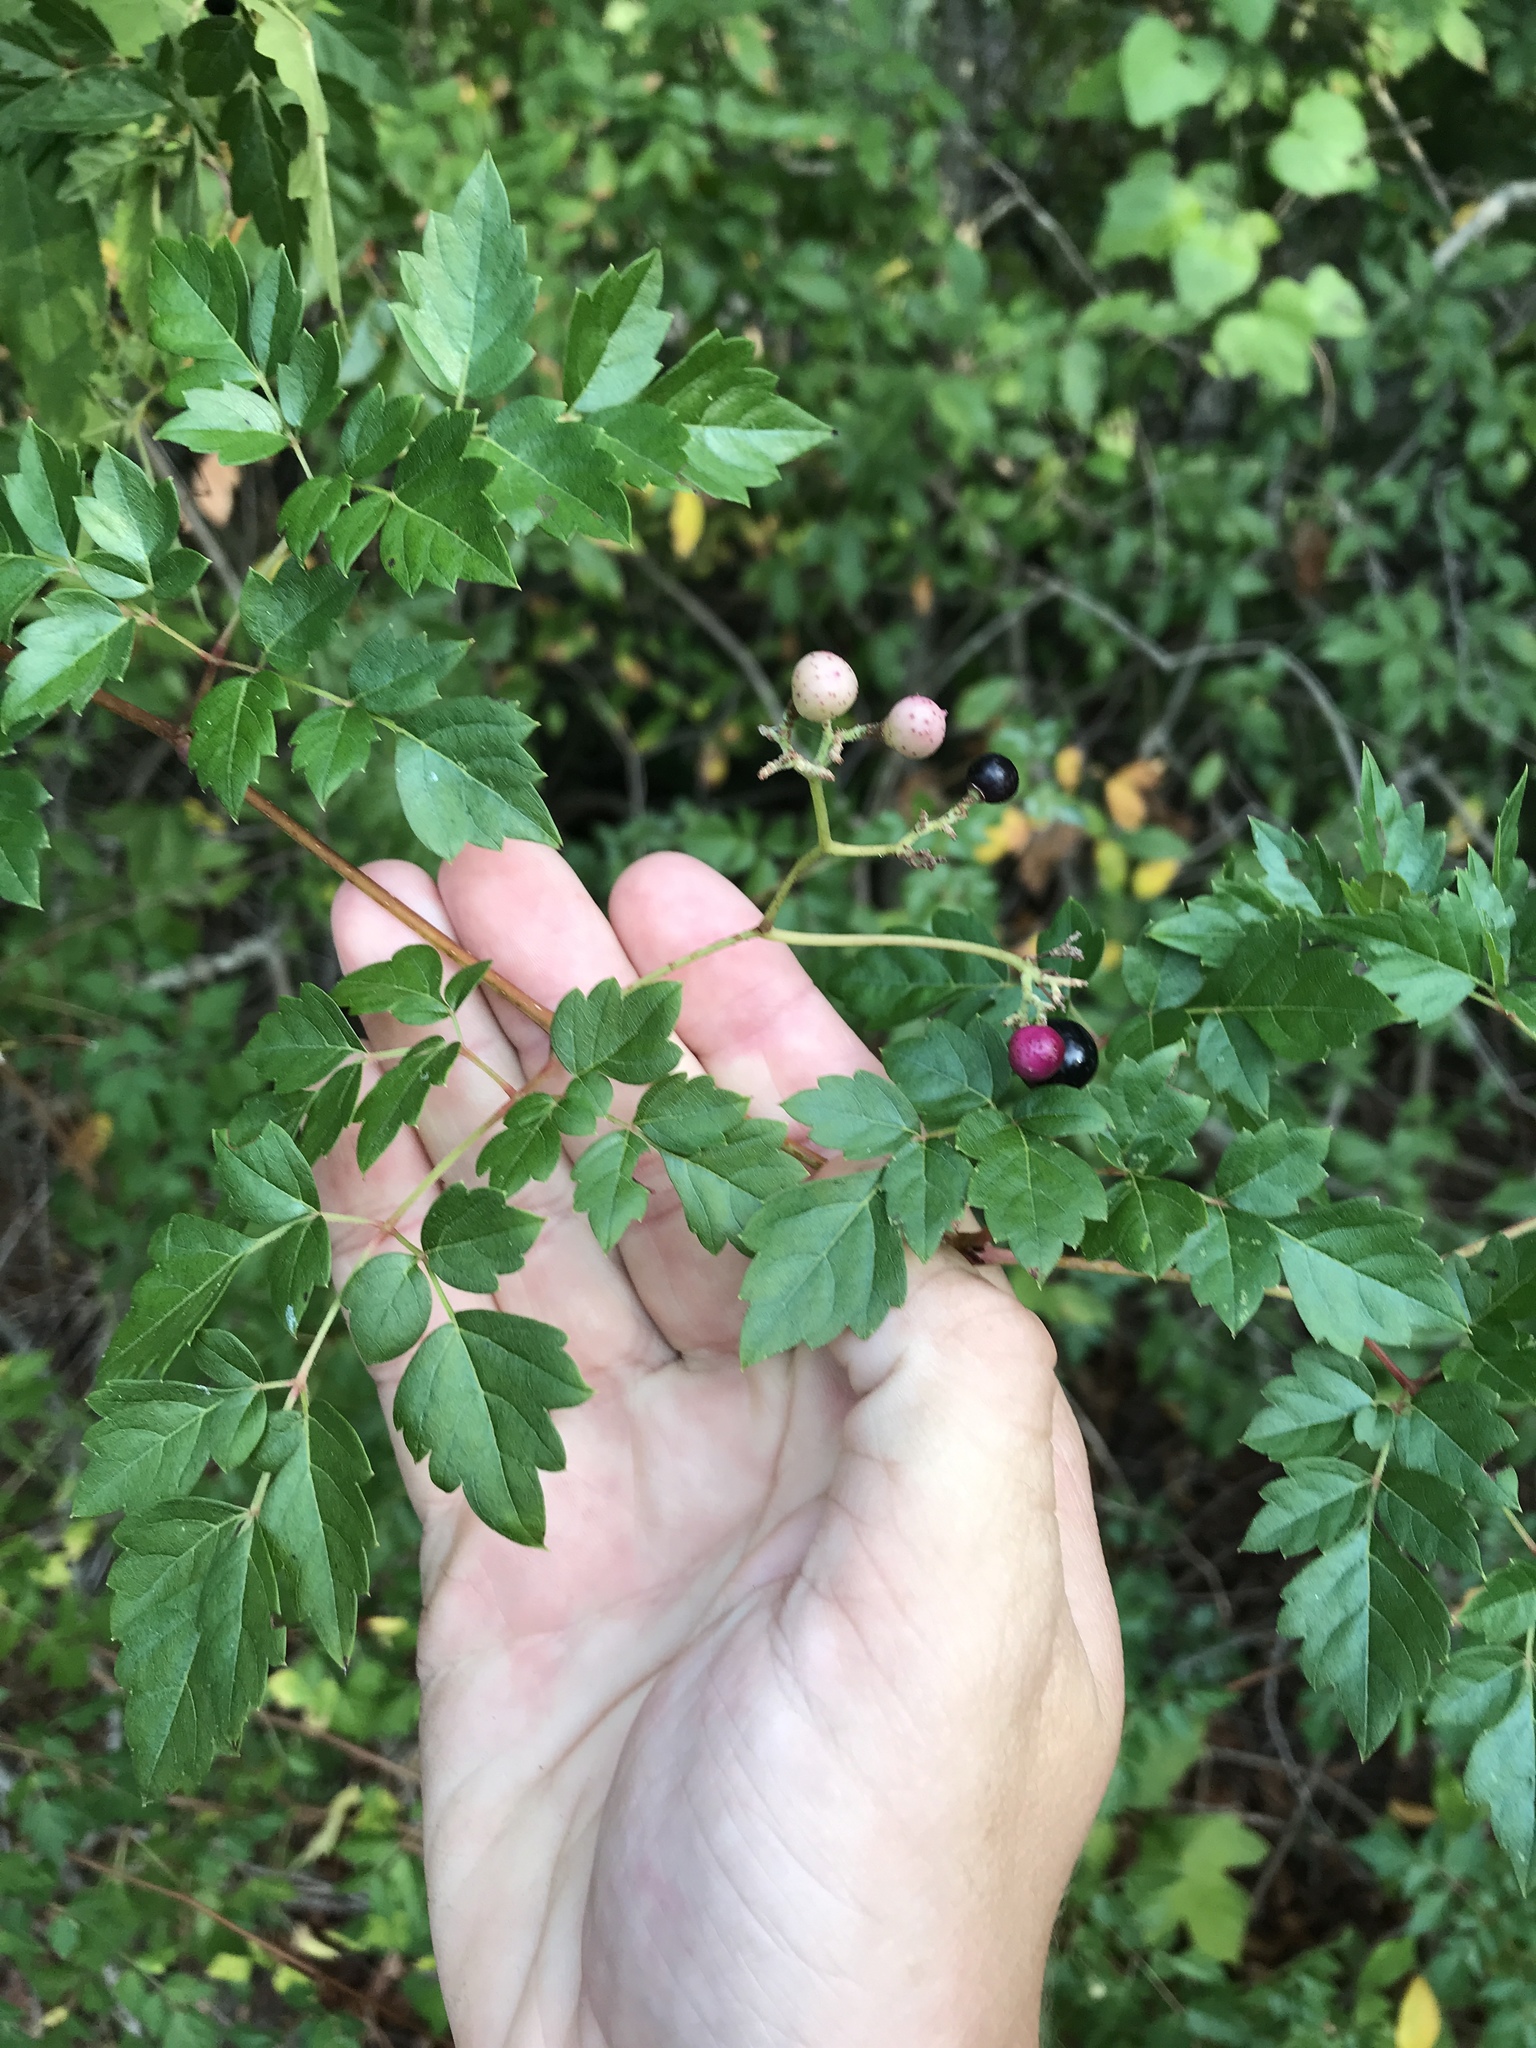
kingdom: Plantae
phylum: Tracheophyta
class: Magnoliopsida
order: Vitales
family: Vitaceae
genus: Nekemias
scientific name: Nekemias arborea
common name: Peppervine
